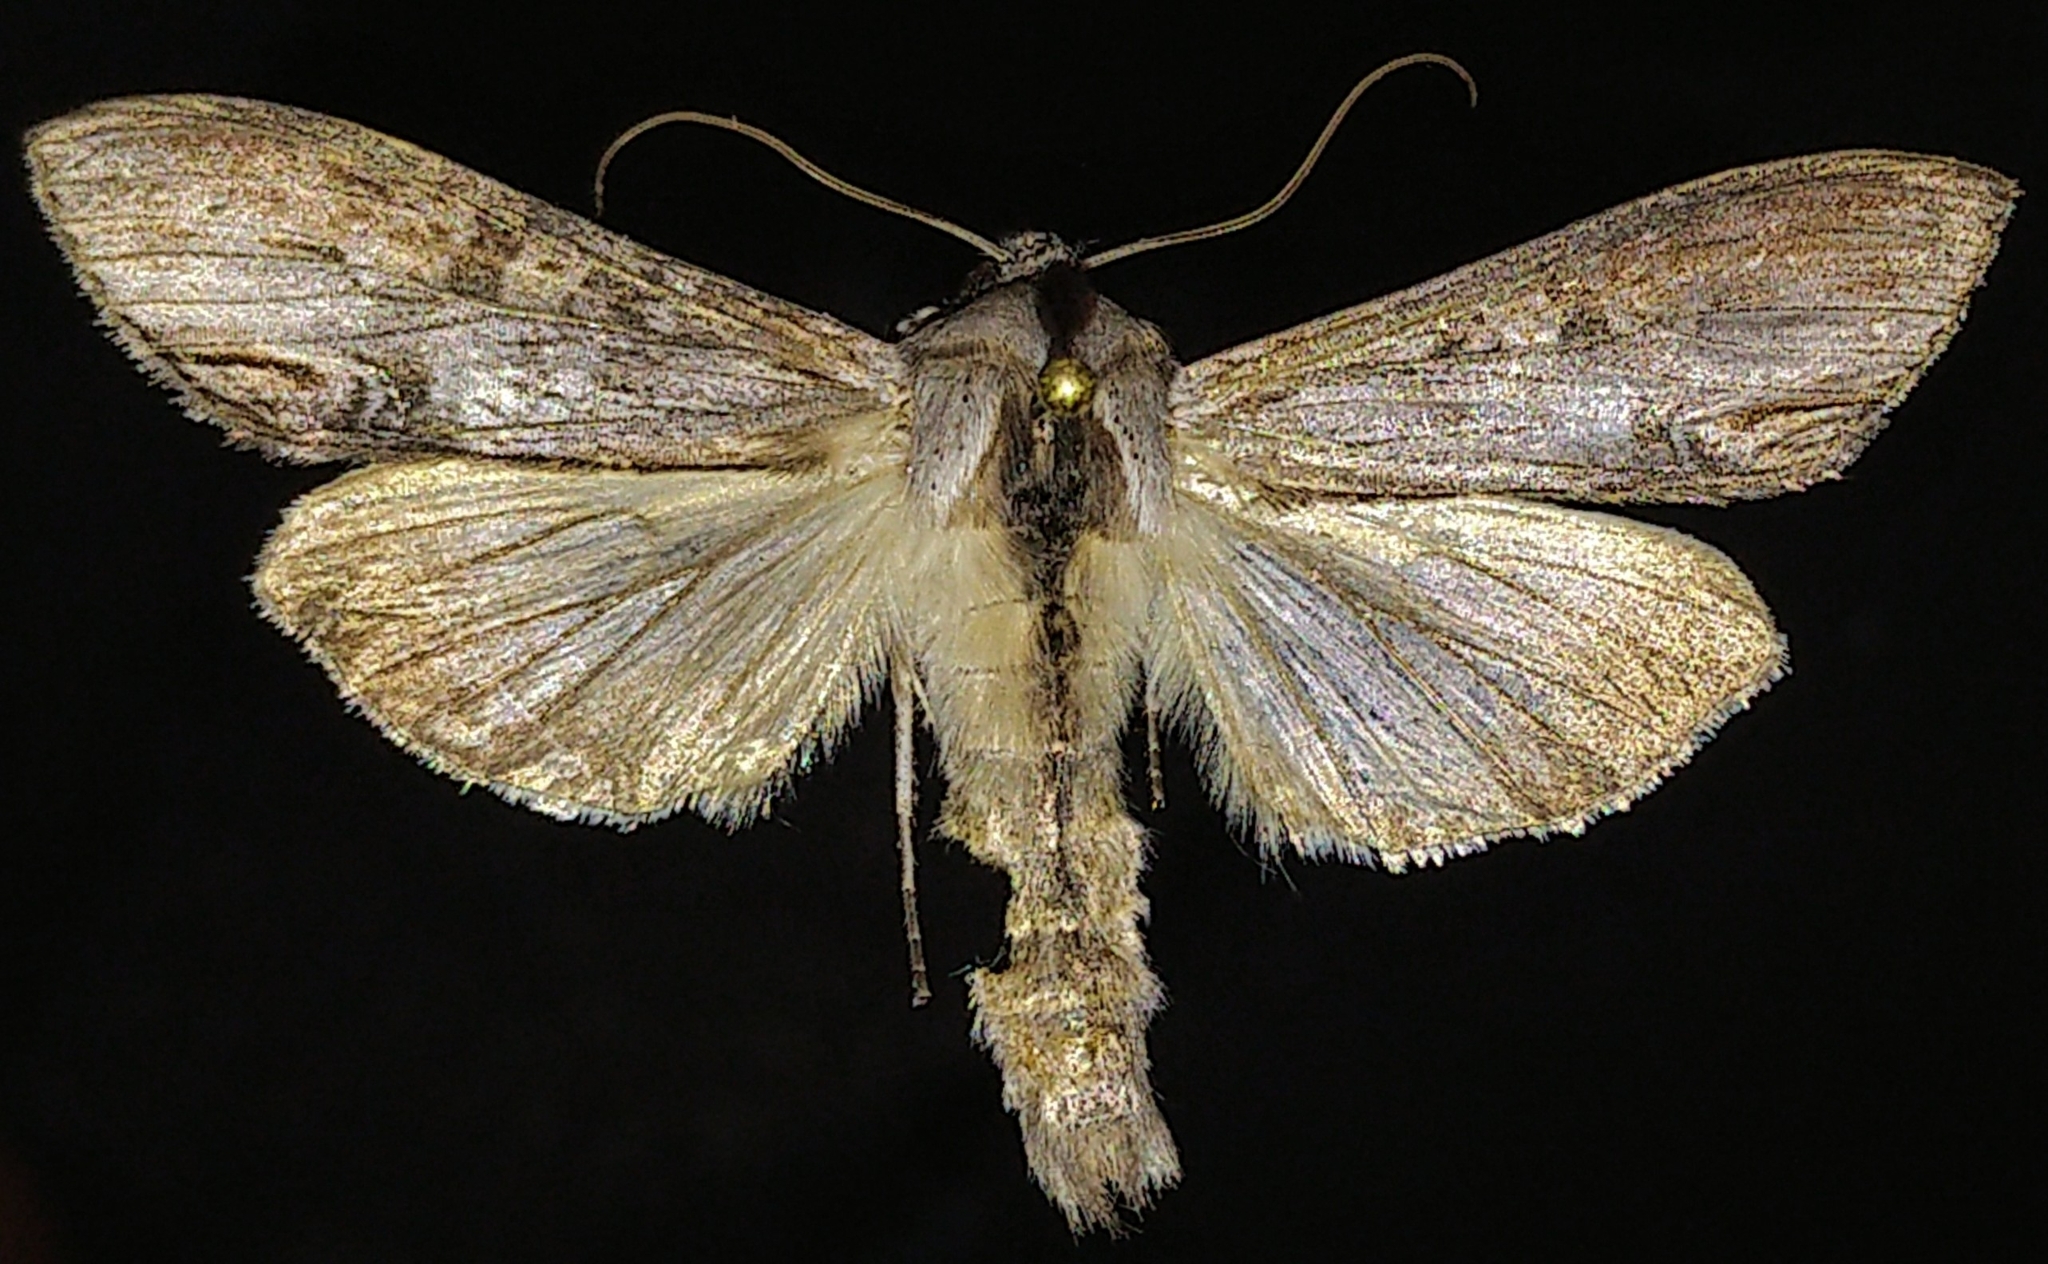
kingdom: Animalia
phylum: Arthropoda
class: Insecta
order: Lepidoptera
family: Noctuidae
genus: Cucullia
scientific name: Cucullia montanae
